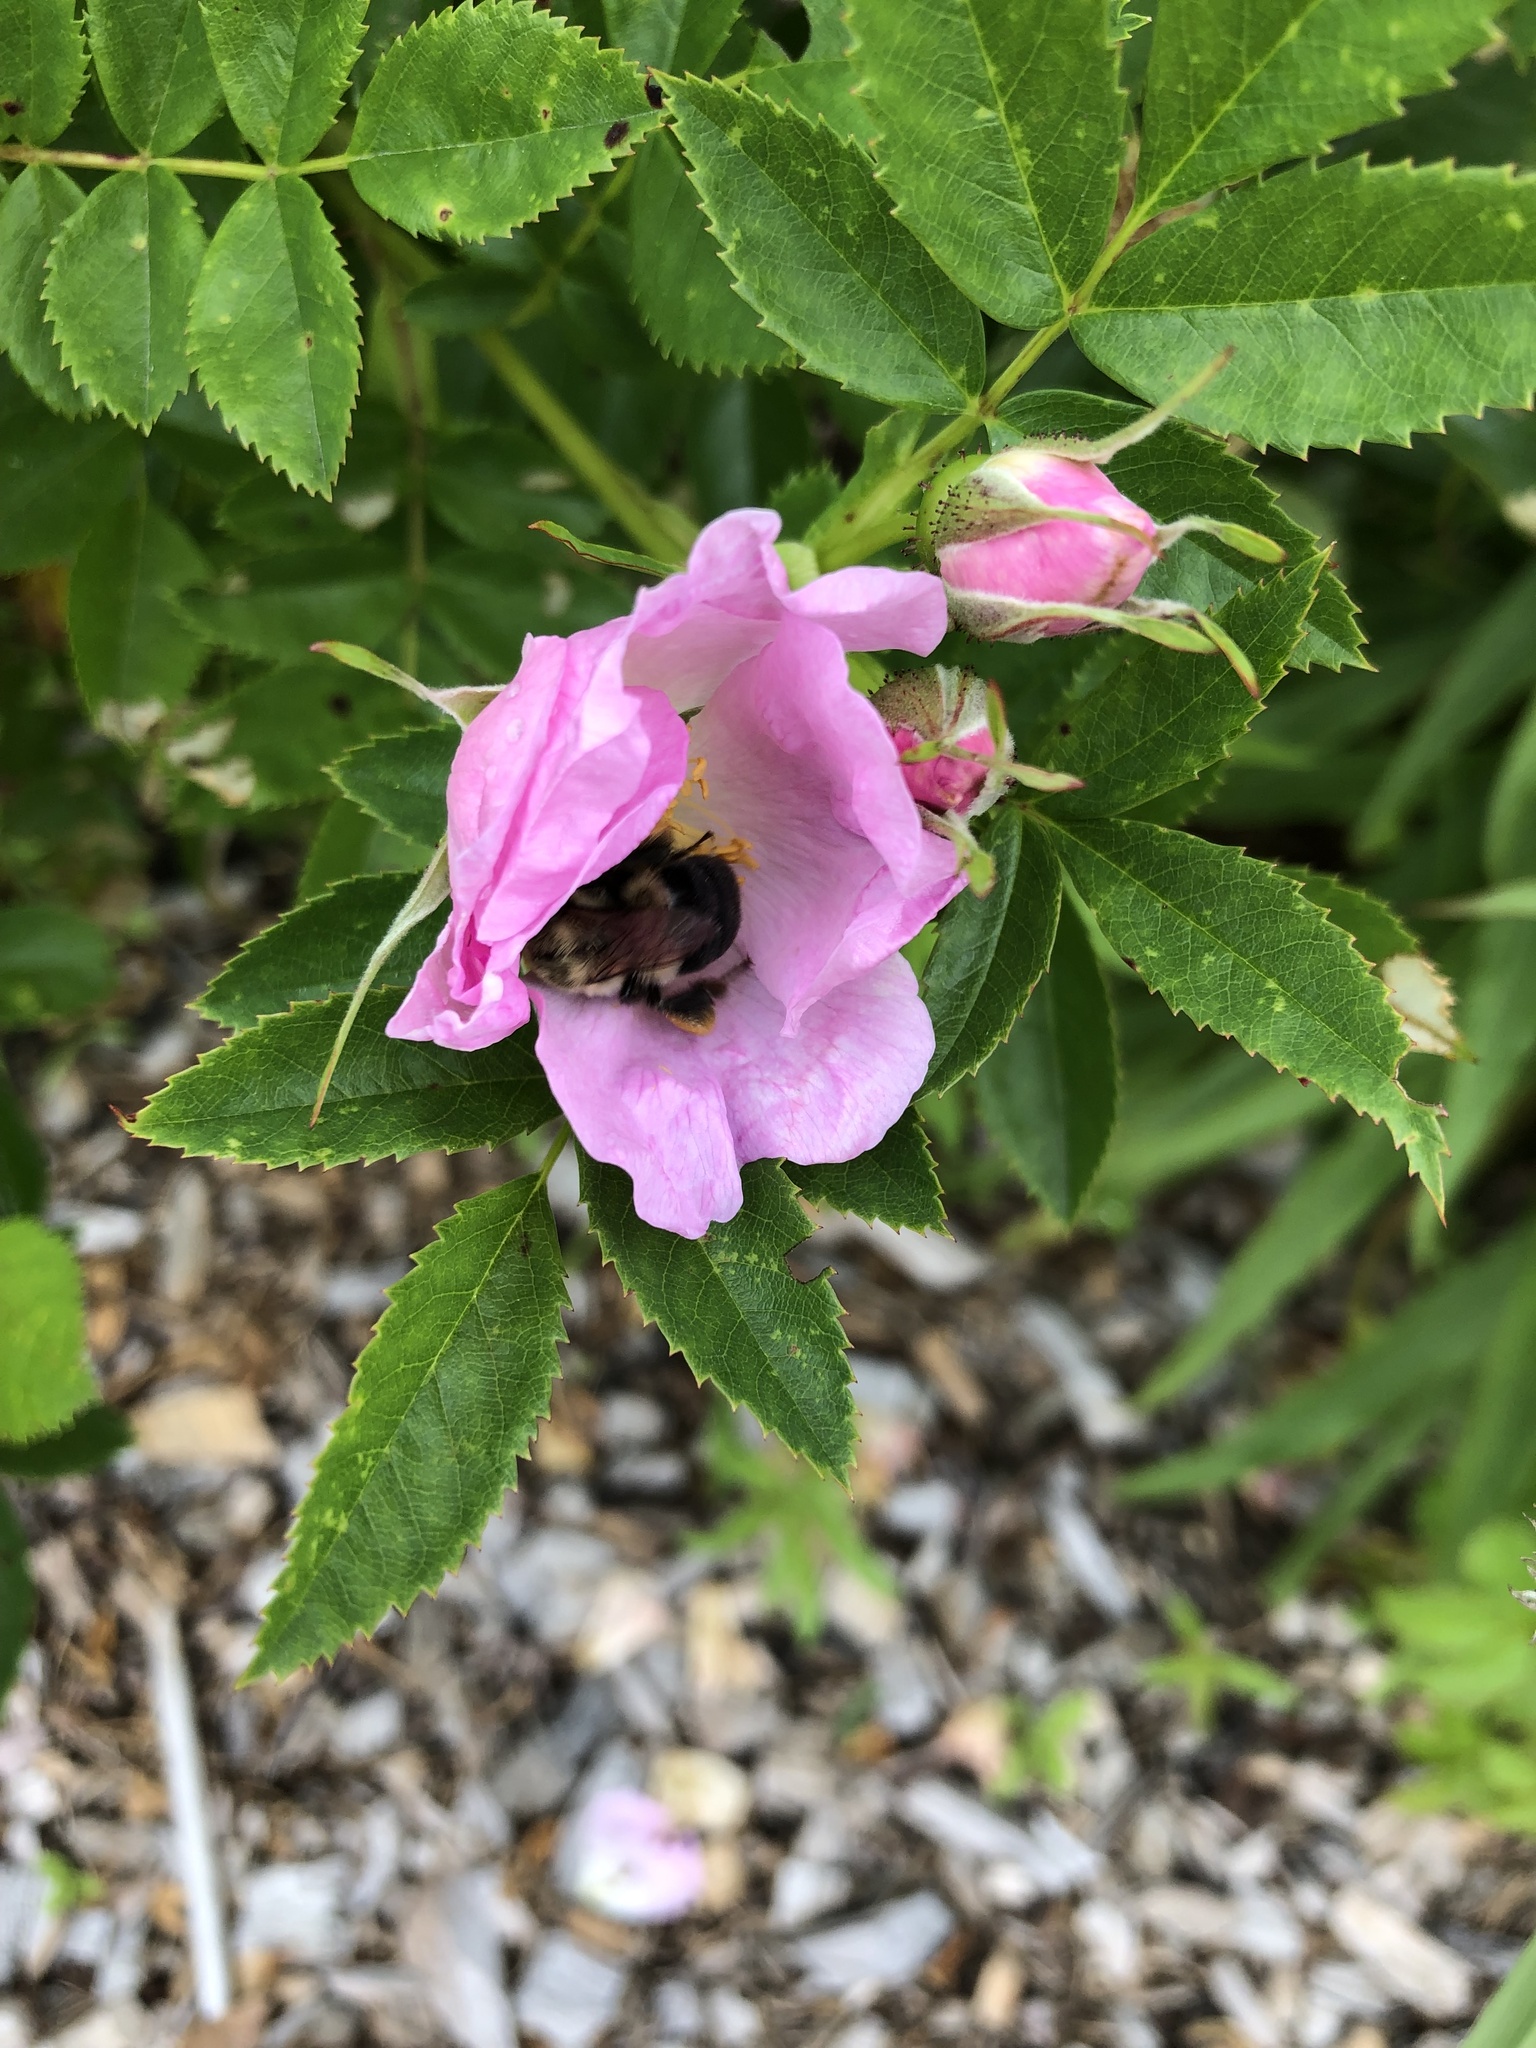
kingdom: Animalia
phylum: Arthropoda
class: Insecta
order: Hymenoptera
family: Apidae
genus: Bombus
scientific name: Bombus impatiens
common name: Common eastern bumble bee
